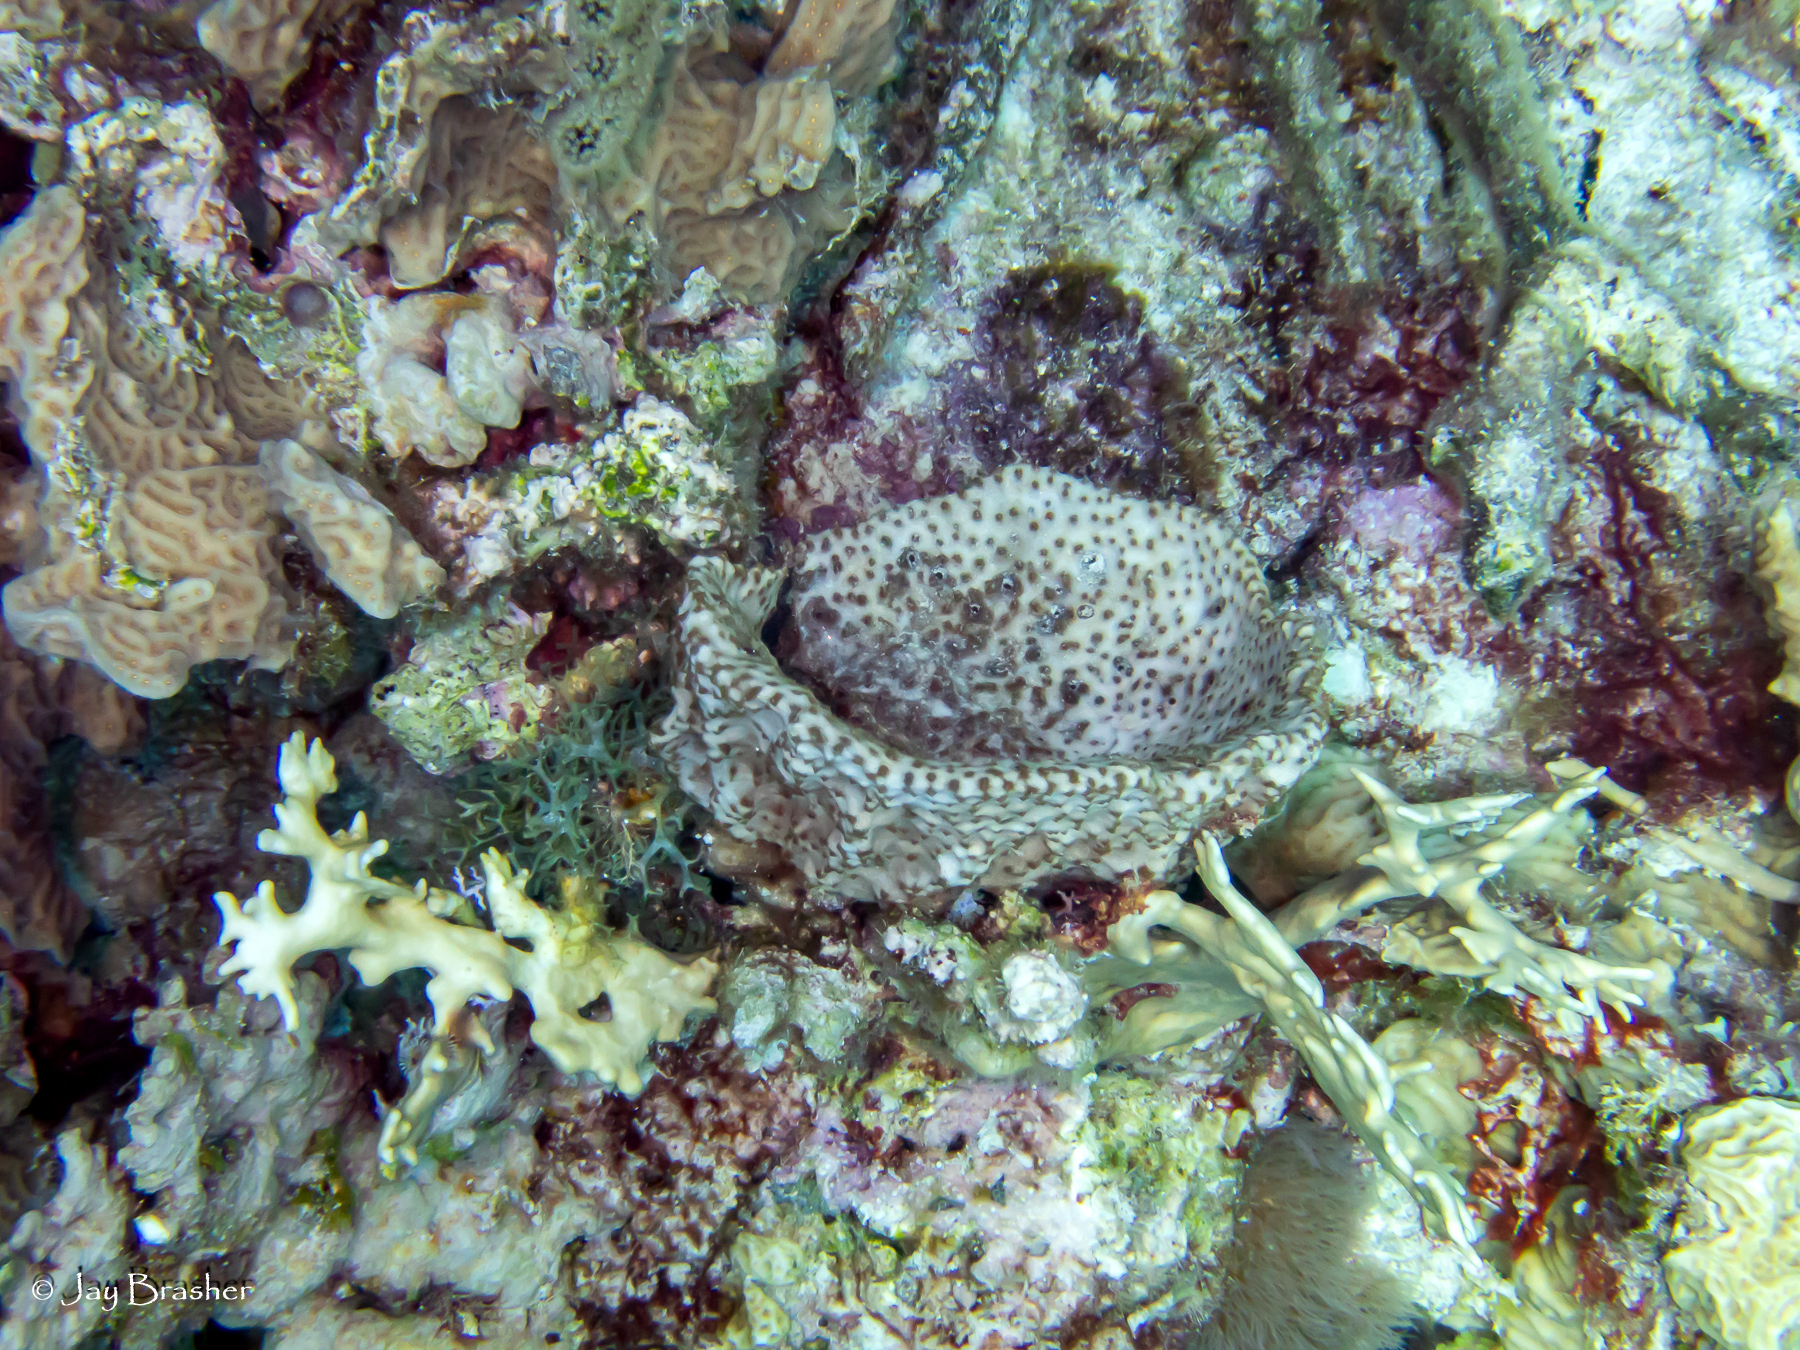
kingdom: Animalia
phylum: Porifera
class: Demospongiae
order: Dictyoceratida
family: Irciniidae
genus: Ircinia
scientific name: Ircinia campana
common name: Vase sponge
